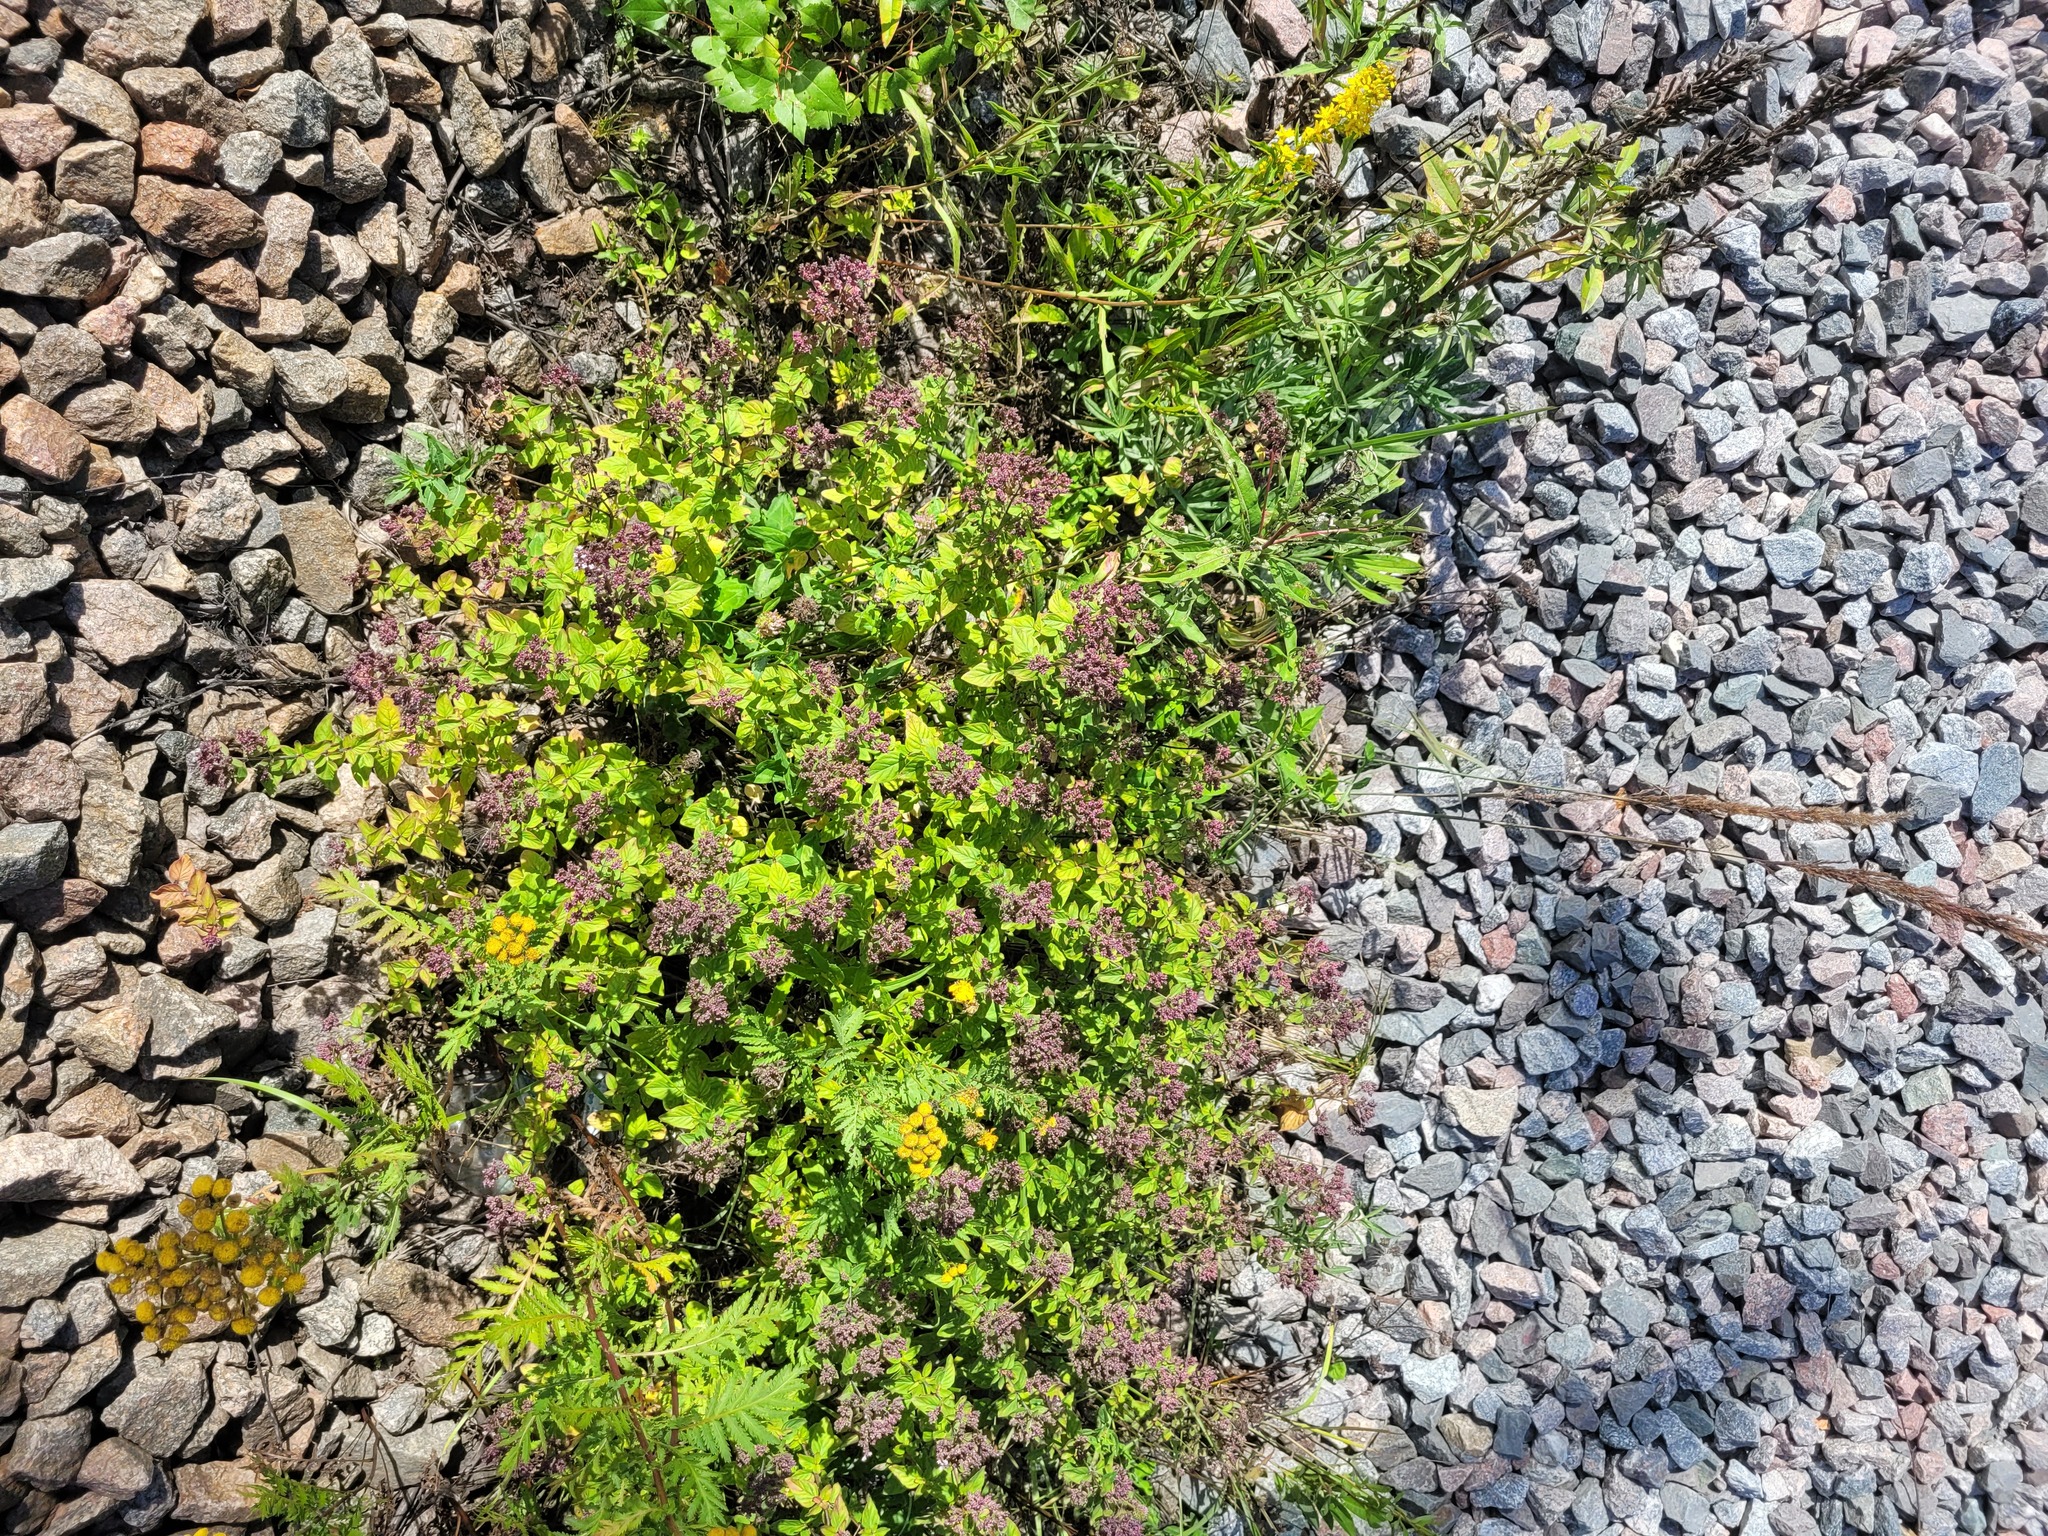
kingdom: Plantae
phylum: Tracheophyta
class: Magnoliopsida
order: Lamiales
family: Lamiaceae
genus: Origanum
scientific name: Origanum vulgare
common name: Wild marjoram
